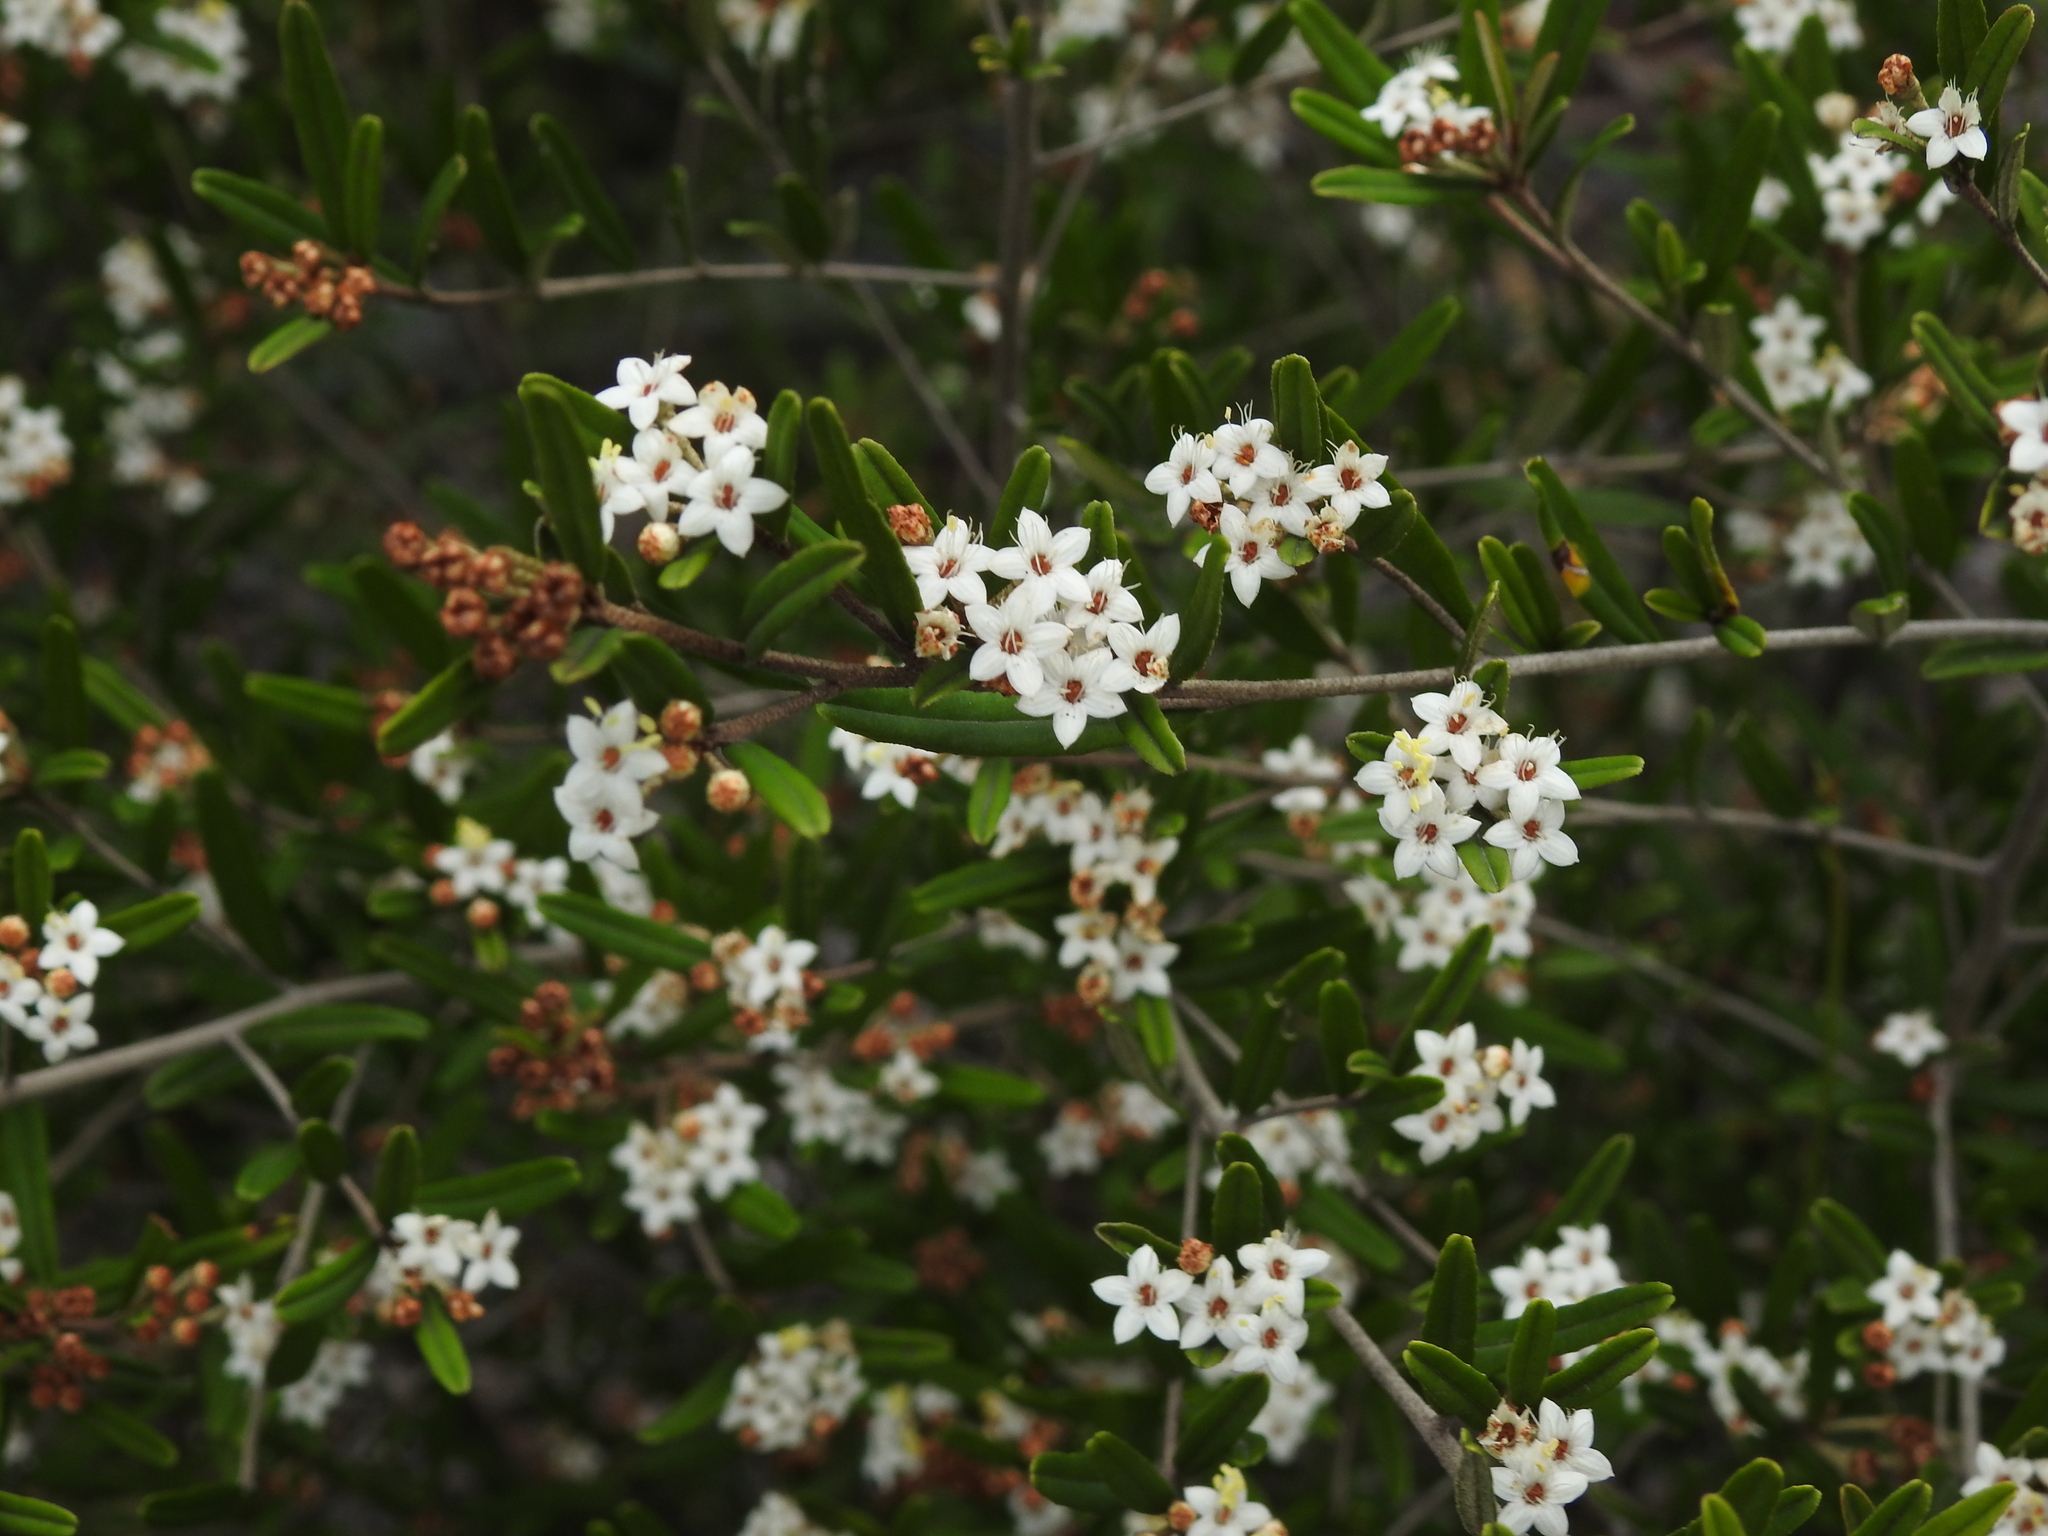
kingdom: Plantae
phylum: Tracheophyta
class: Magnoliopsida
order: Sapindales
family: Rutaceae
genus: Phebalium
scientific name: Phebalium woombye
